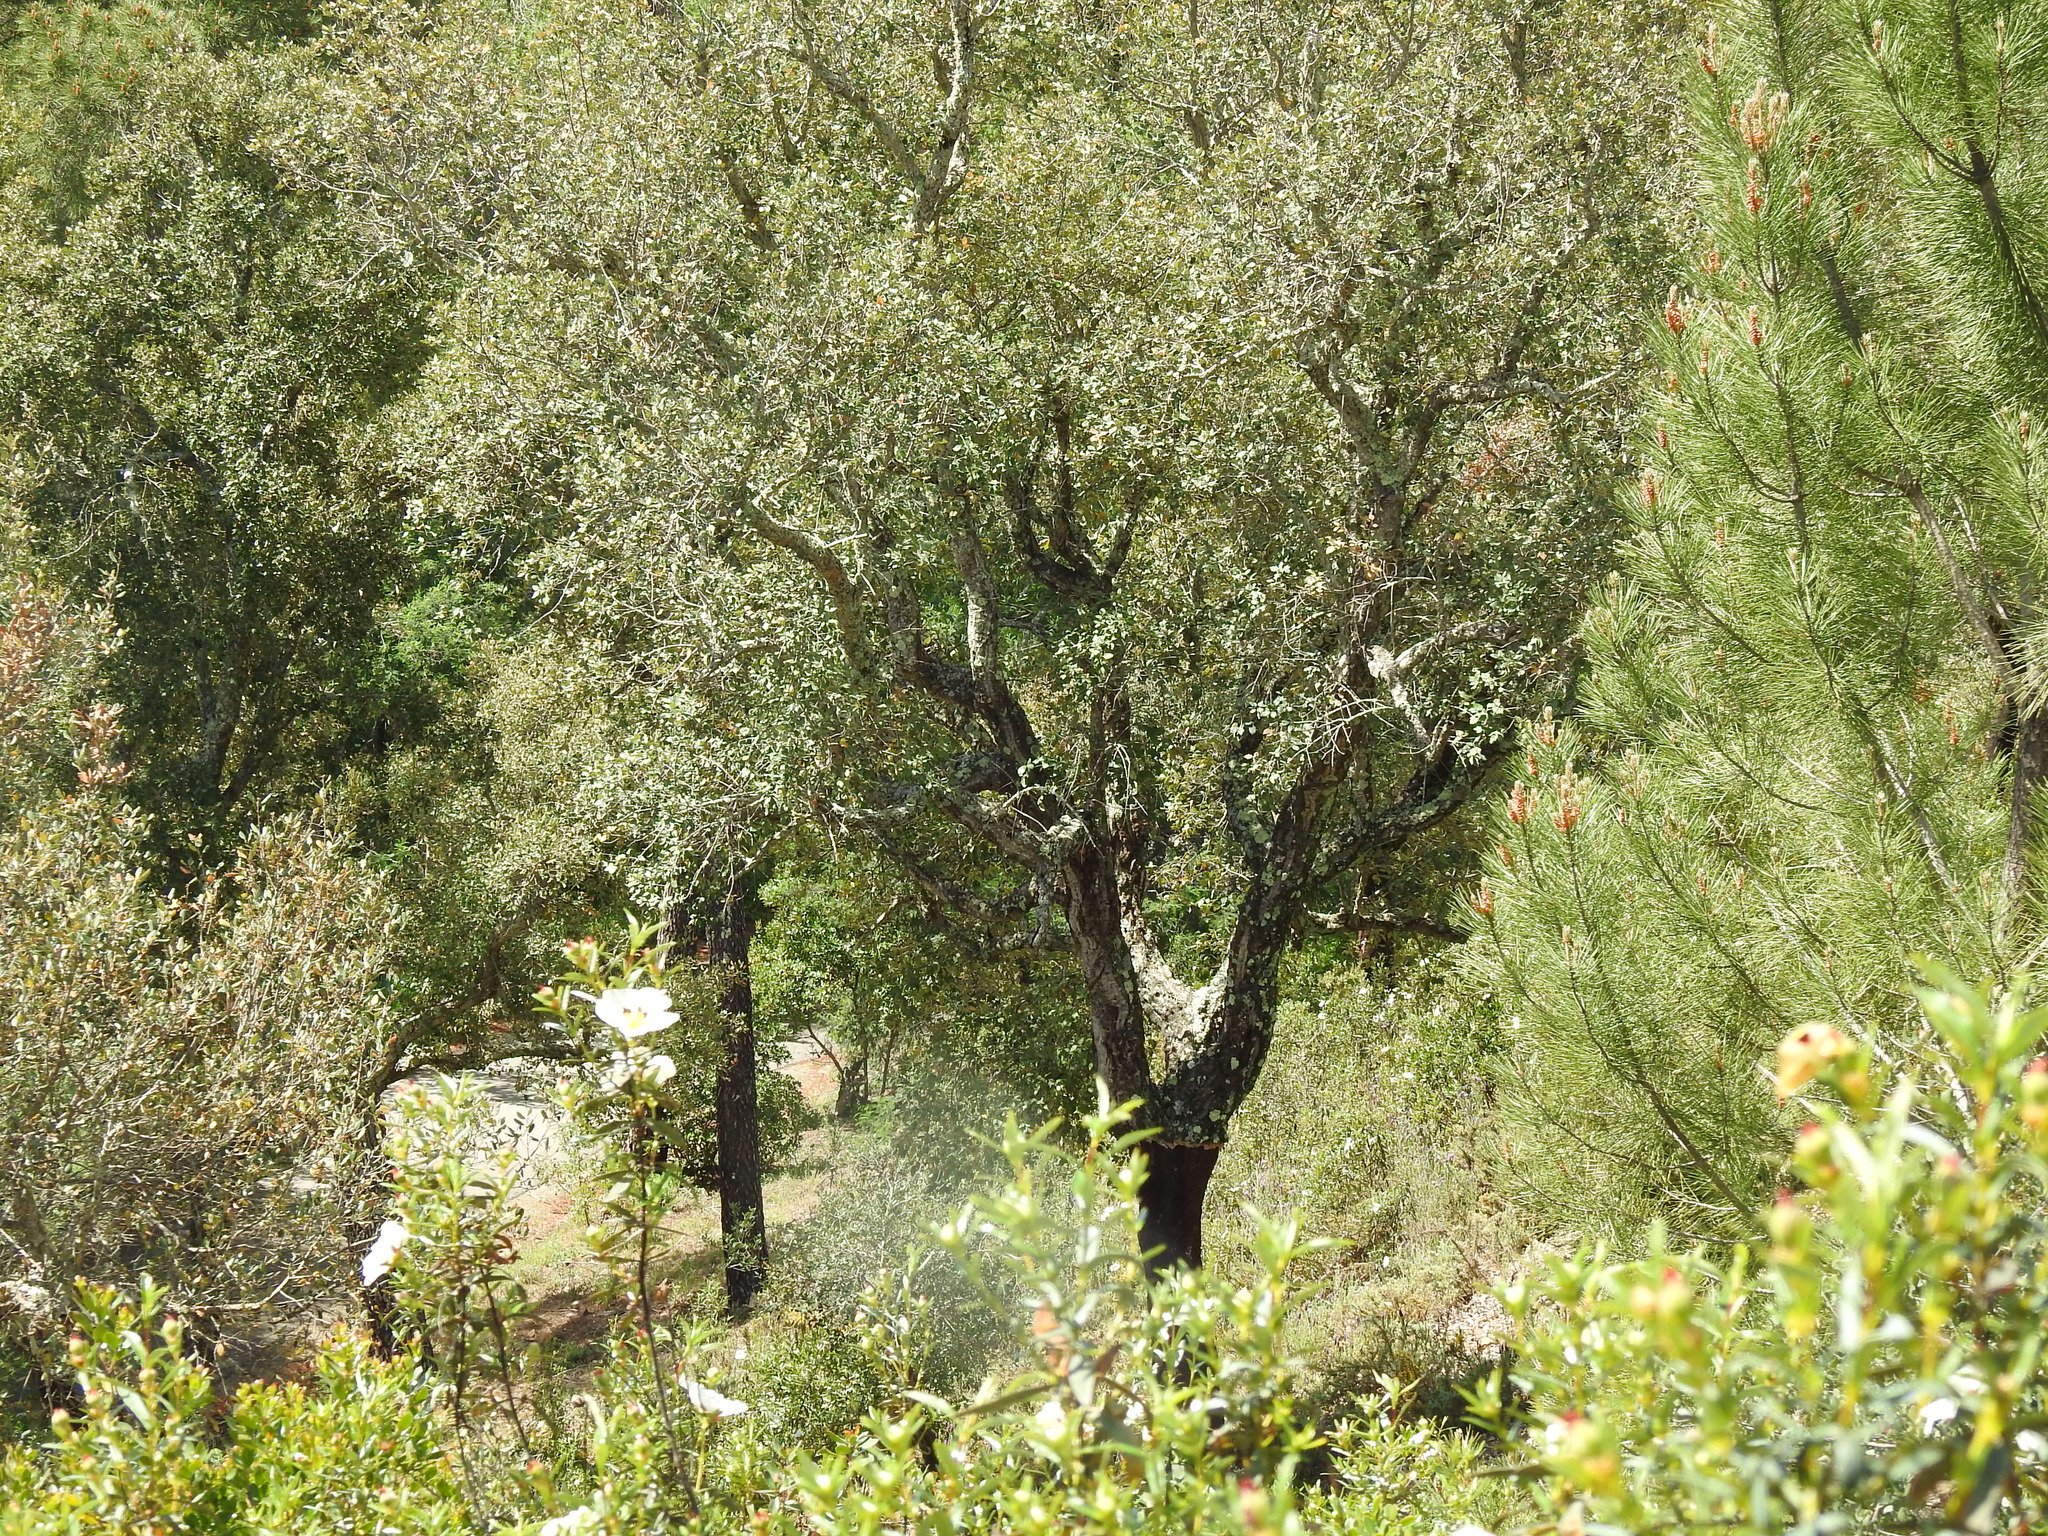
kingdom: Plantae
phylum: Tracheophyta
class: Magnoliopsida
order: Fagales
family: Fagaceae
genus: Quercus
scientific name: Quercus suber
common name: Cork oak
